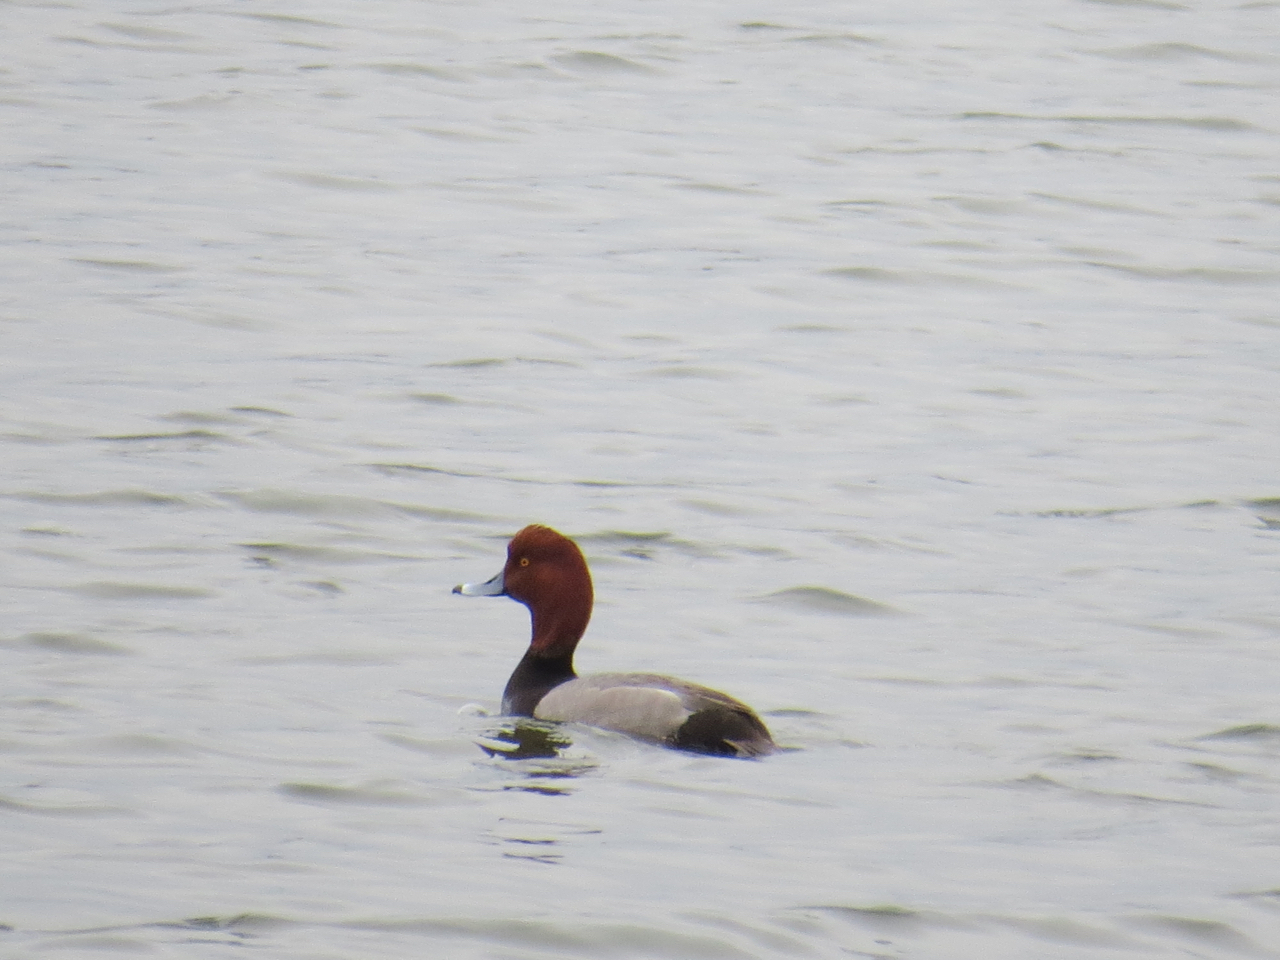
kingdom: Animalia
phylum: Chordata
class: Aves
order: Anseriformes
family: Anatidae
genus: Aythya
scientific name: Aythya americana
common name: Redhead
